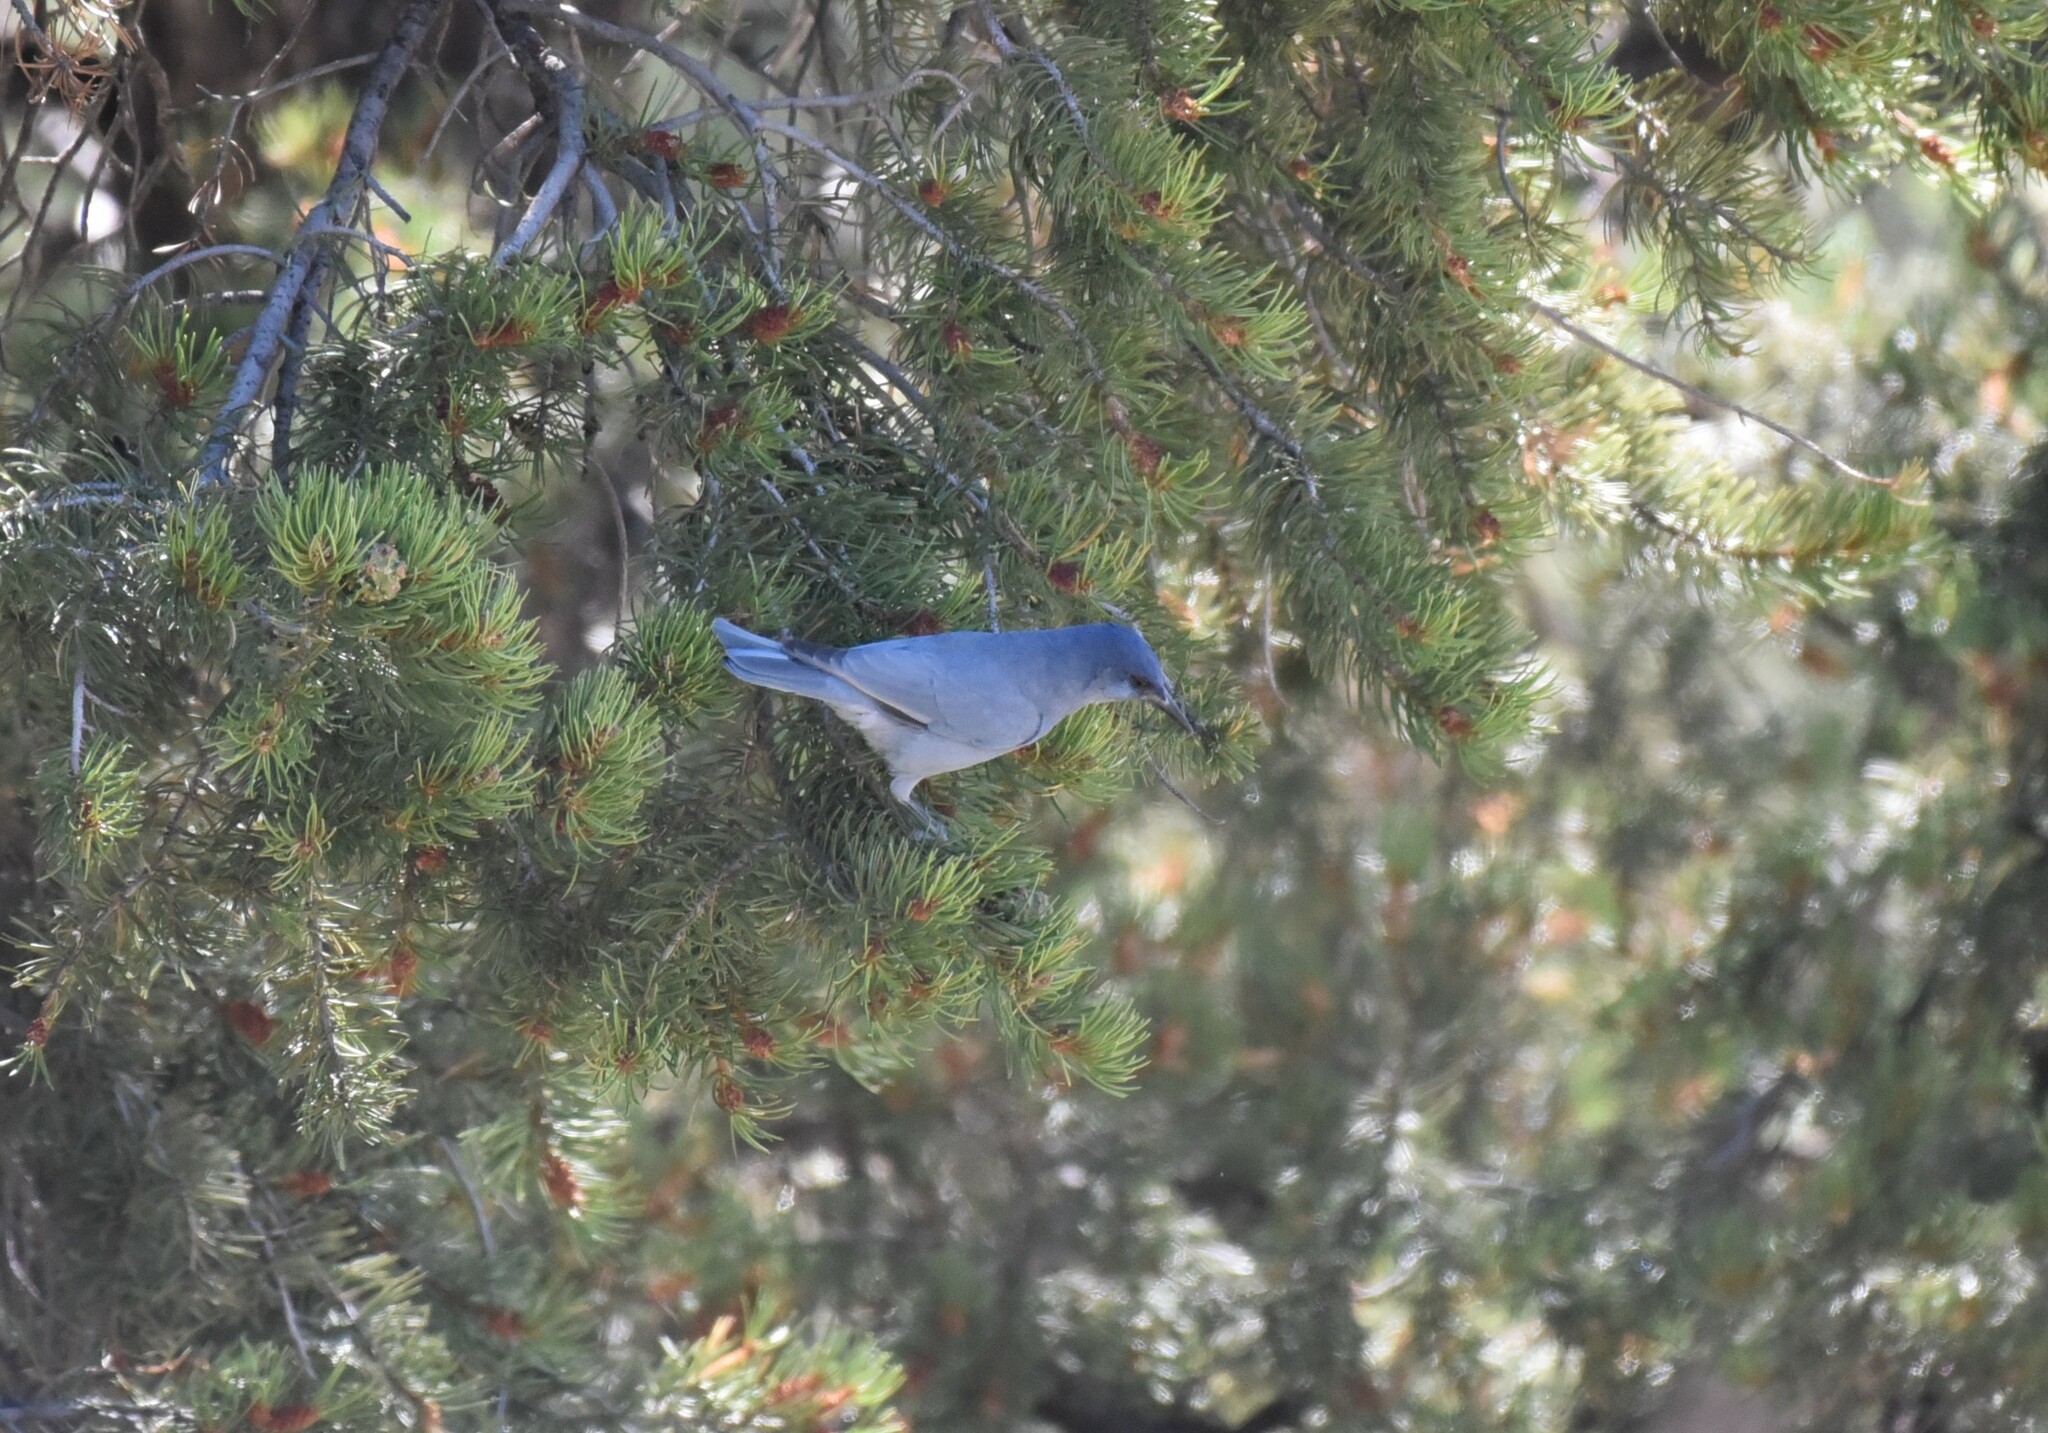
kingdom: Animalia
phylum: Chordata
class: Aves
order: Passeriformes
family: Corvidae
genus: Gymnorhinus
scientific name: Gymnorhinus cyanocephalus
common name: Pinyon jay
